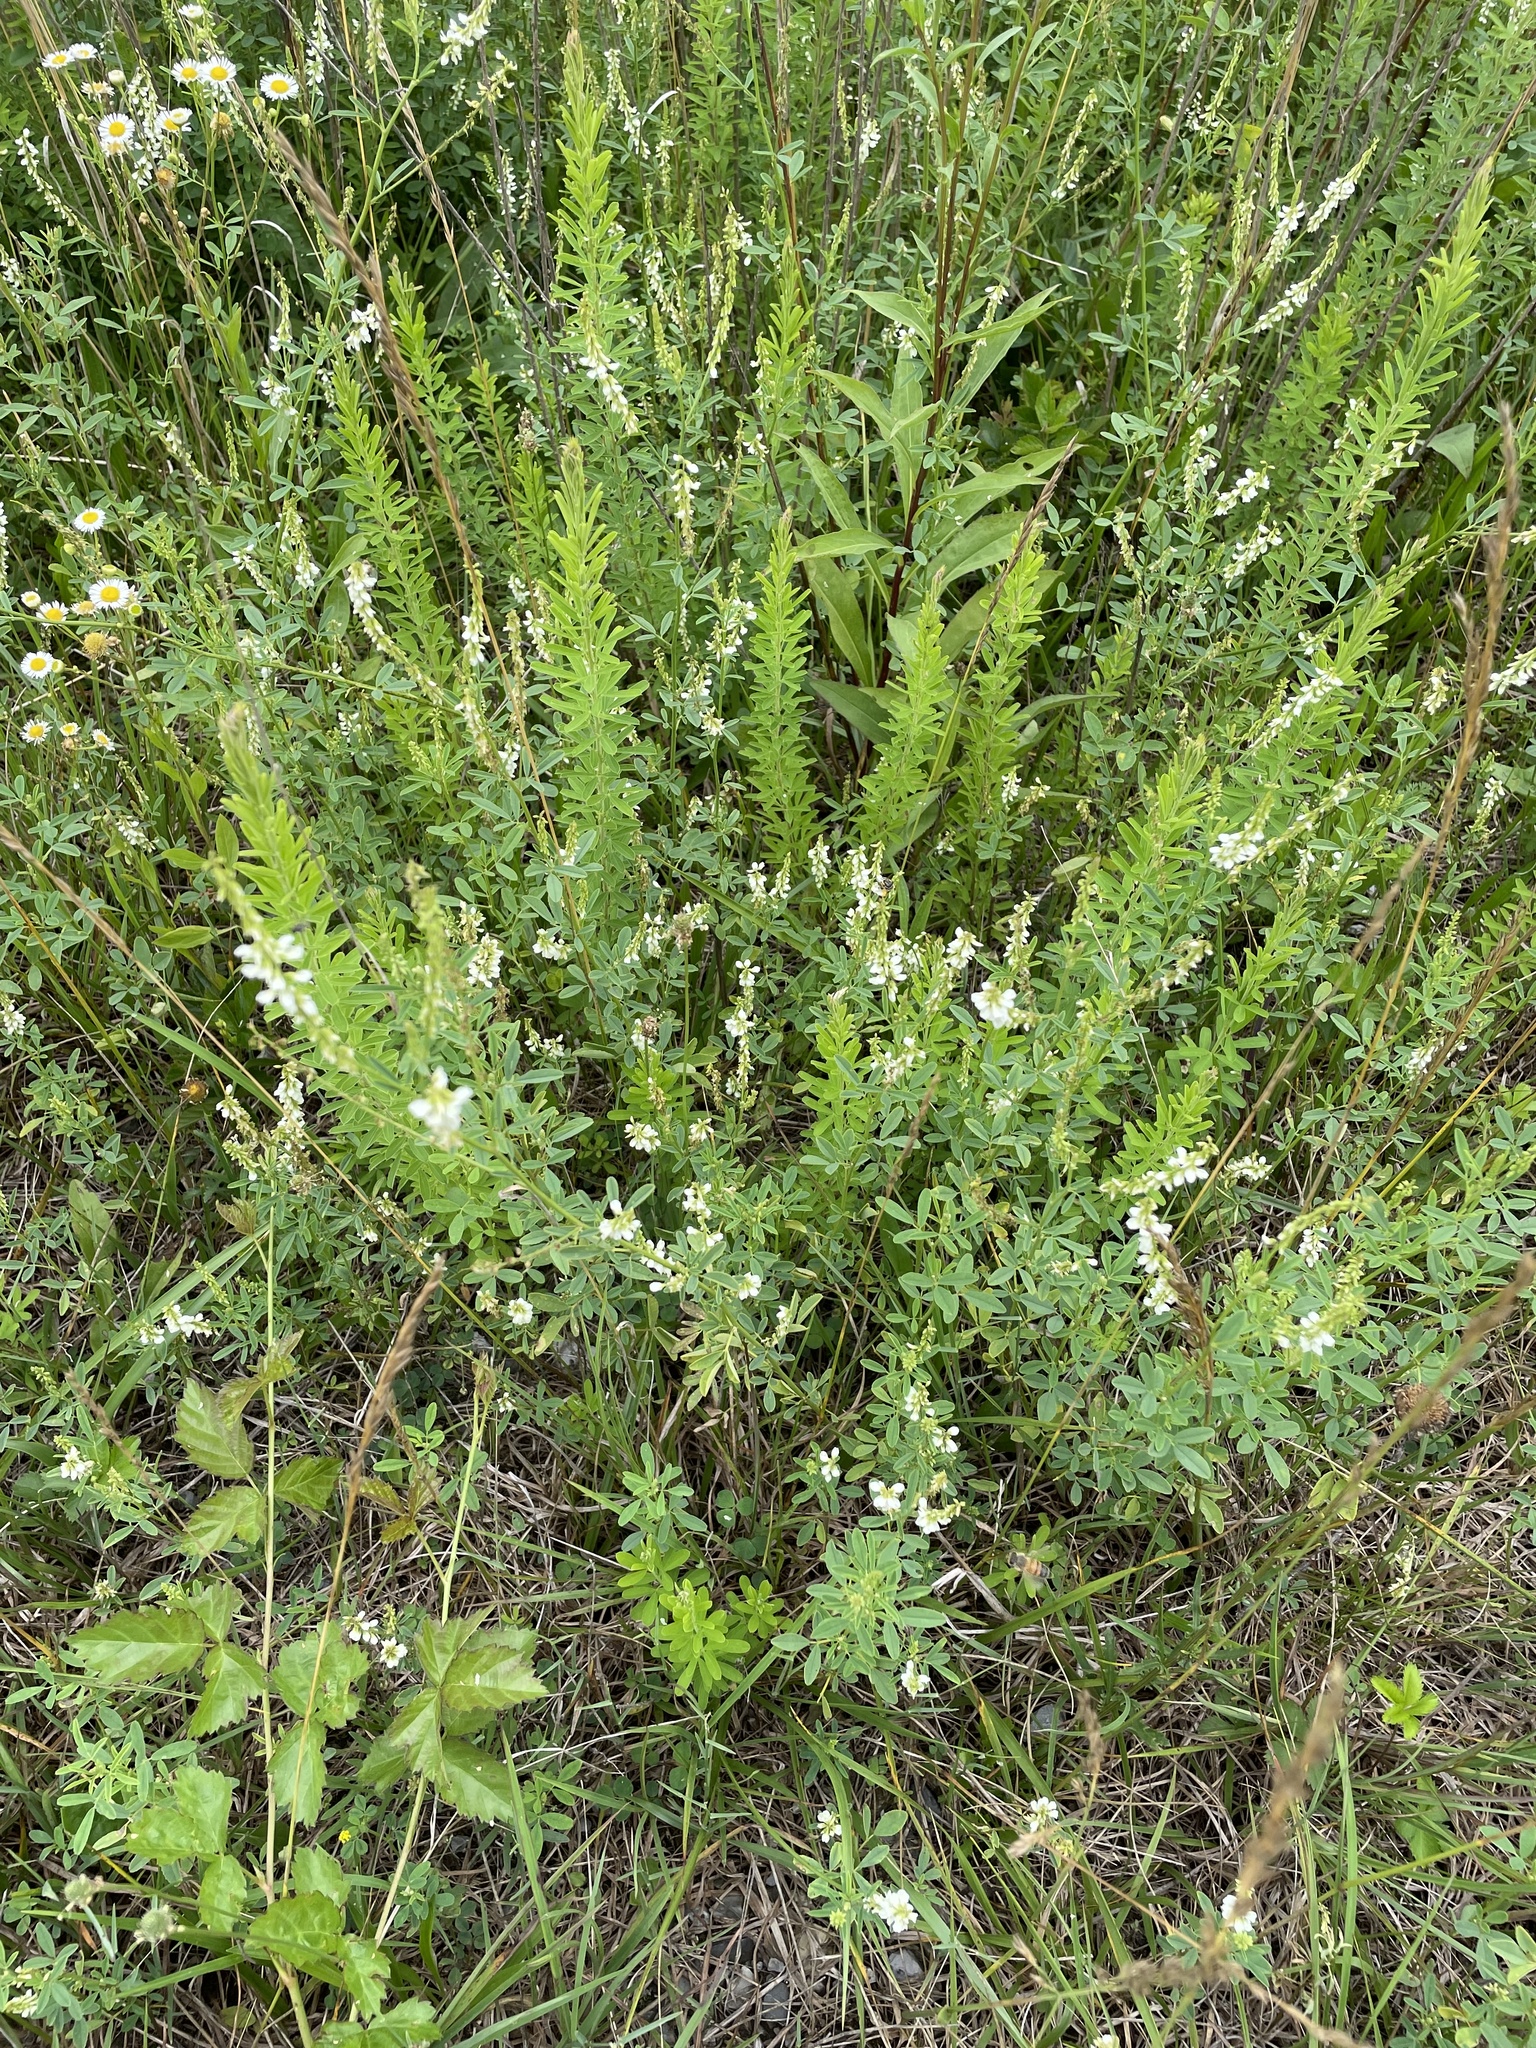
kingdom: Plantae
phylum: Tracheophyta
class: Magnoliopsida
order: Fabales
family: Fabaceae
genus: Melilotus
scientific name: Melilotus albus
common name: White melilot
